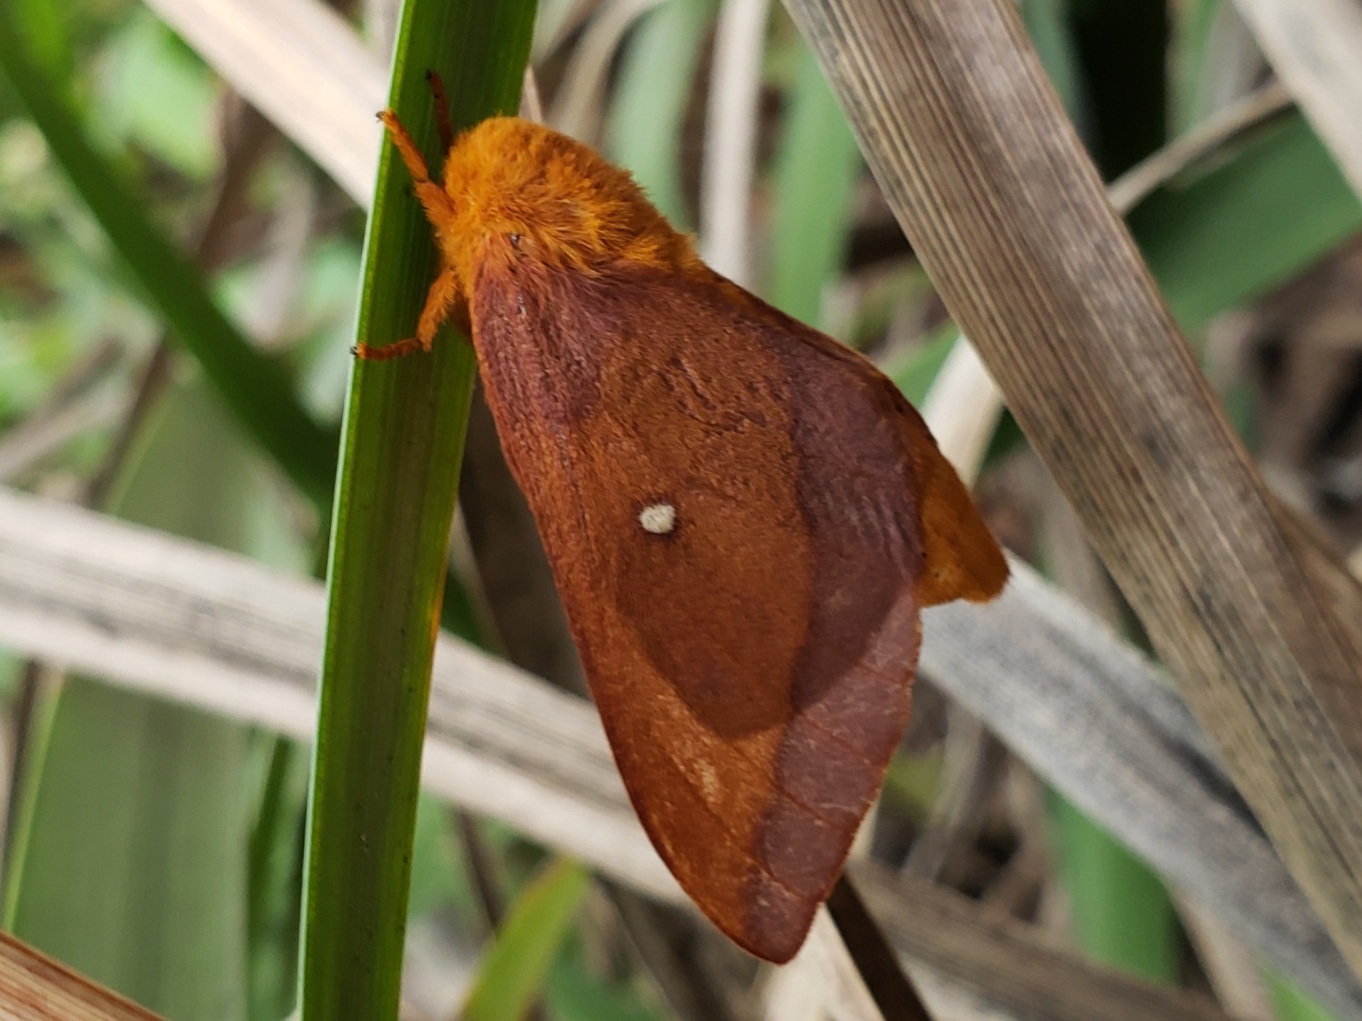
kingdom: Animalia
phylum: Arthropoda
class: Insecta
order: Lepidoptera
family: Saturniidae
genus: Anisota
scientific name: Anisota virginiensis
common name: Pink striped oakworm moth
